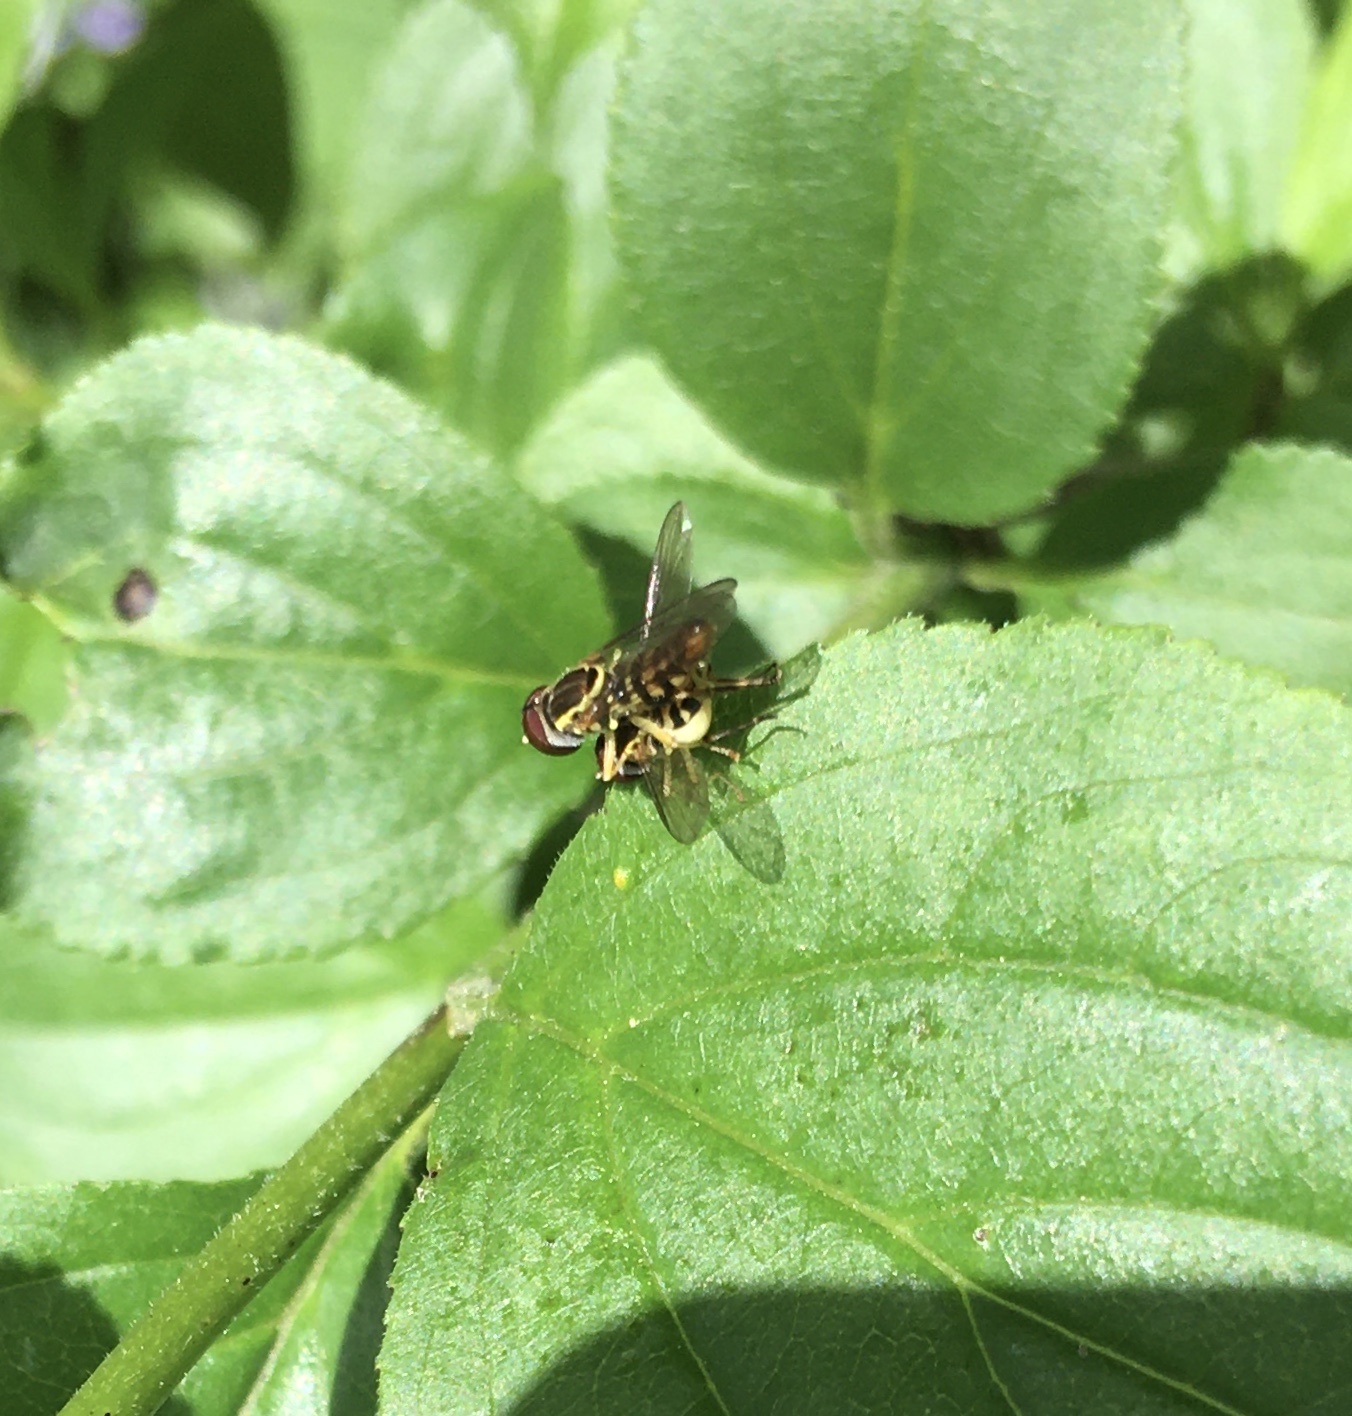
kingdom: Animalia
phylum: Arthropoda
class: Insecta
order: Diptera
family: Syrphidae
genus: Toxomerus
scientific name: Toxomerus geminatus
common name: Eastern calligrapher
